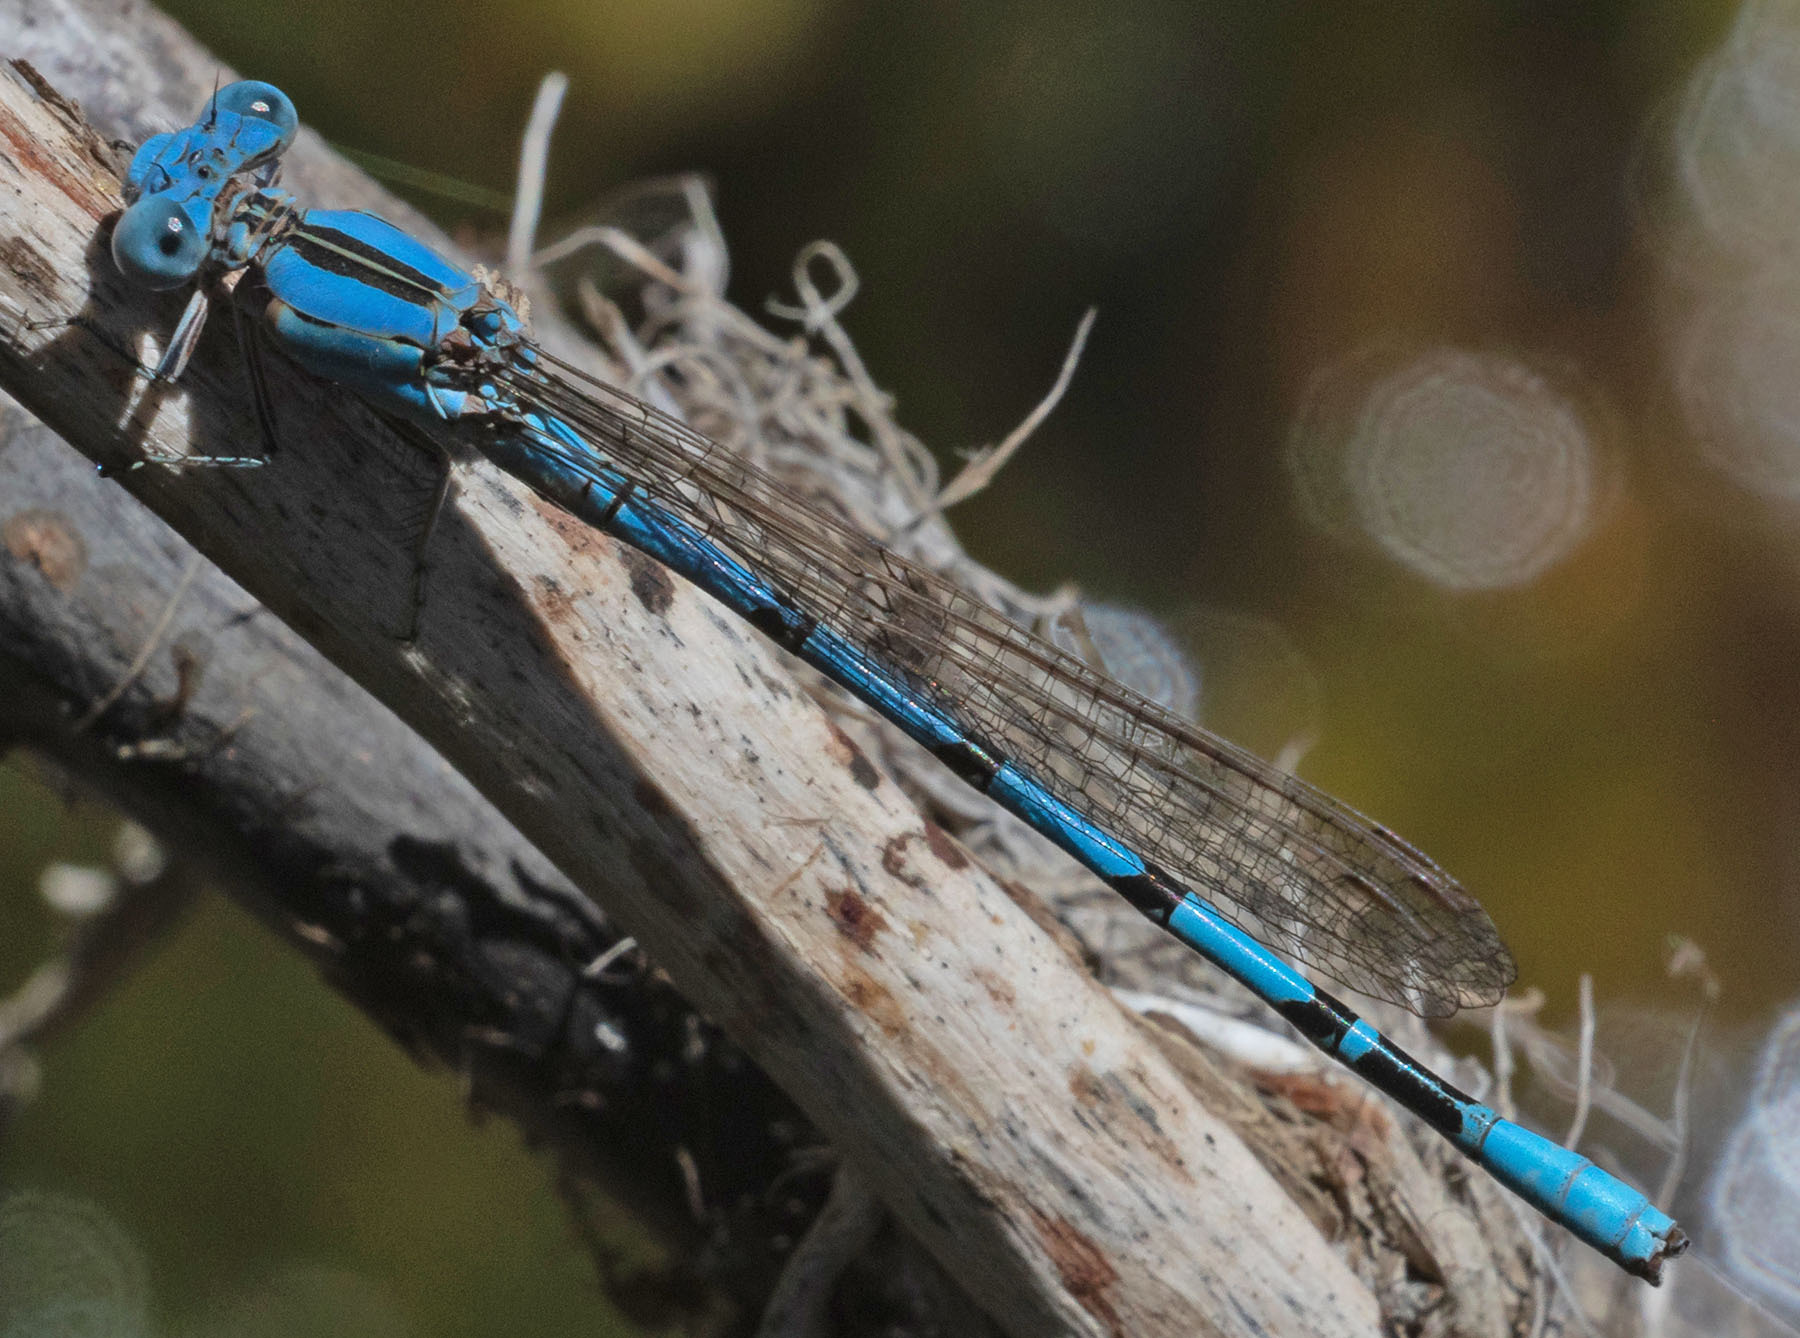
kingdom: Animalia
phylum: Arthropoda
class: Insecta
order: Odonata
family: Coenagrionidae
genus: Argia
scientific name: Argia nahuana
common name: Aztec dancer
